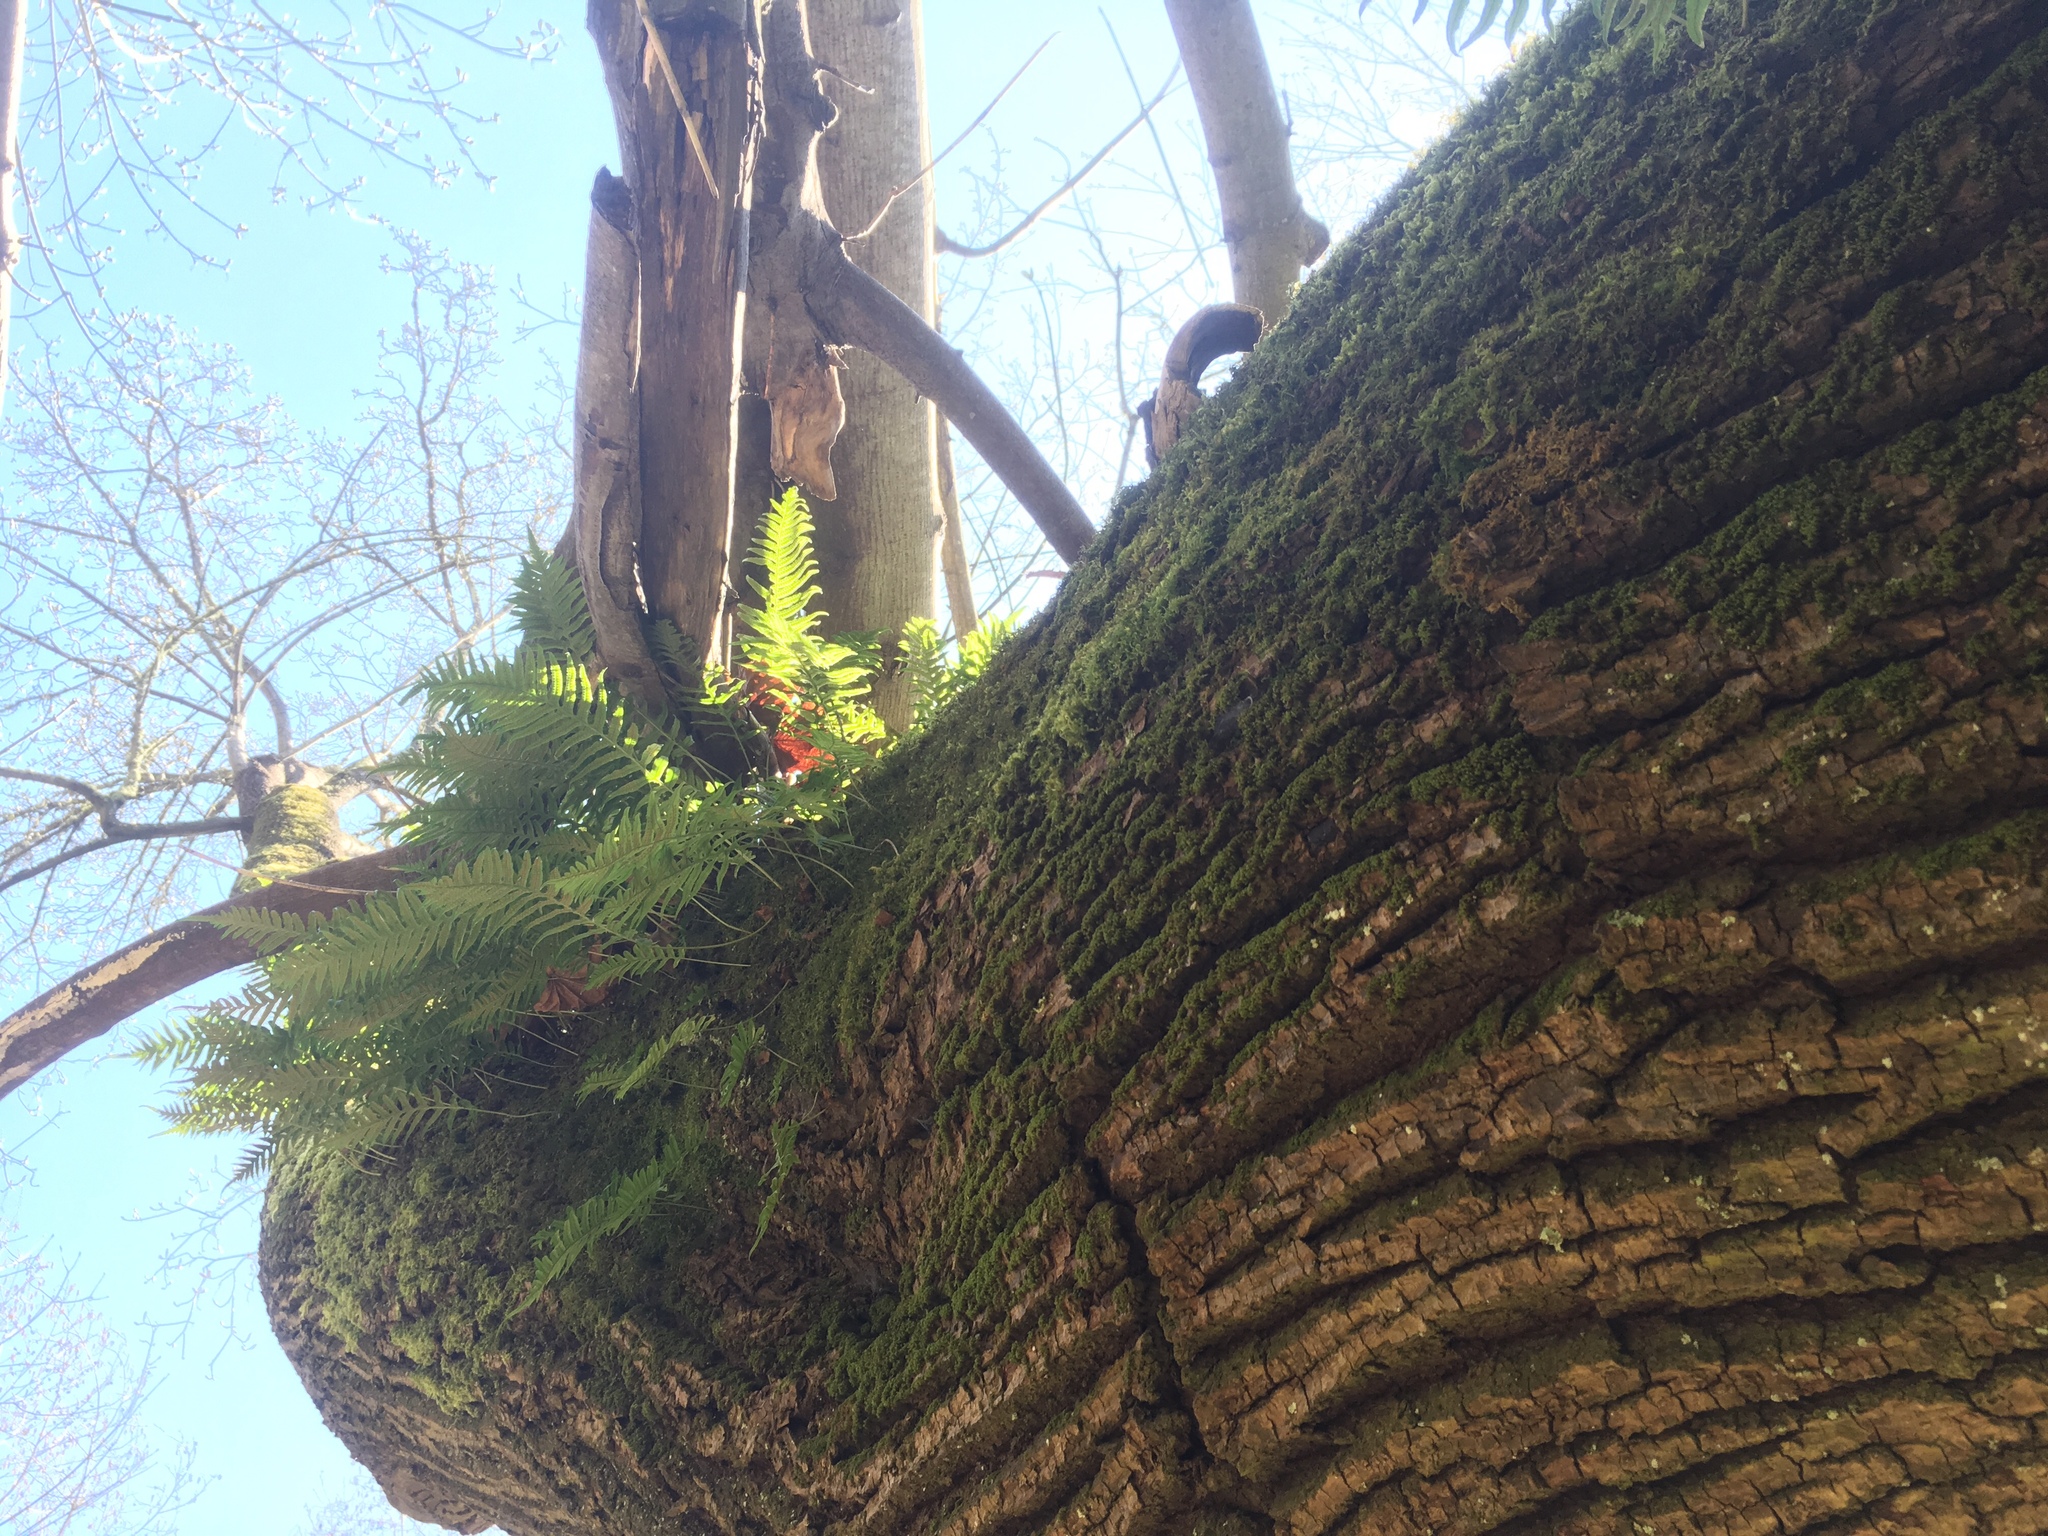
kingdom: Plantae
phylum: Tracheophyta
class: Polypodiopsida
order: Polypodiales
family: Polypodiaceae
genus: Polypodium
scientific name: Polypodium glycyrrhiza
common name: Licorice fern
